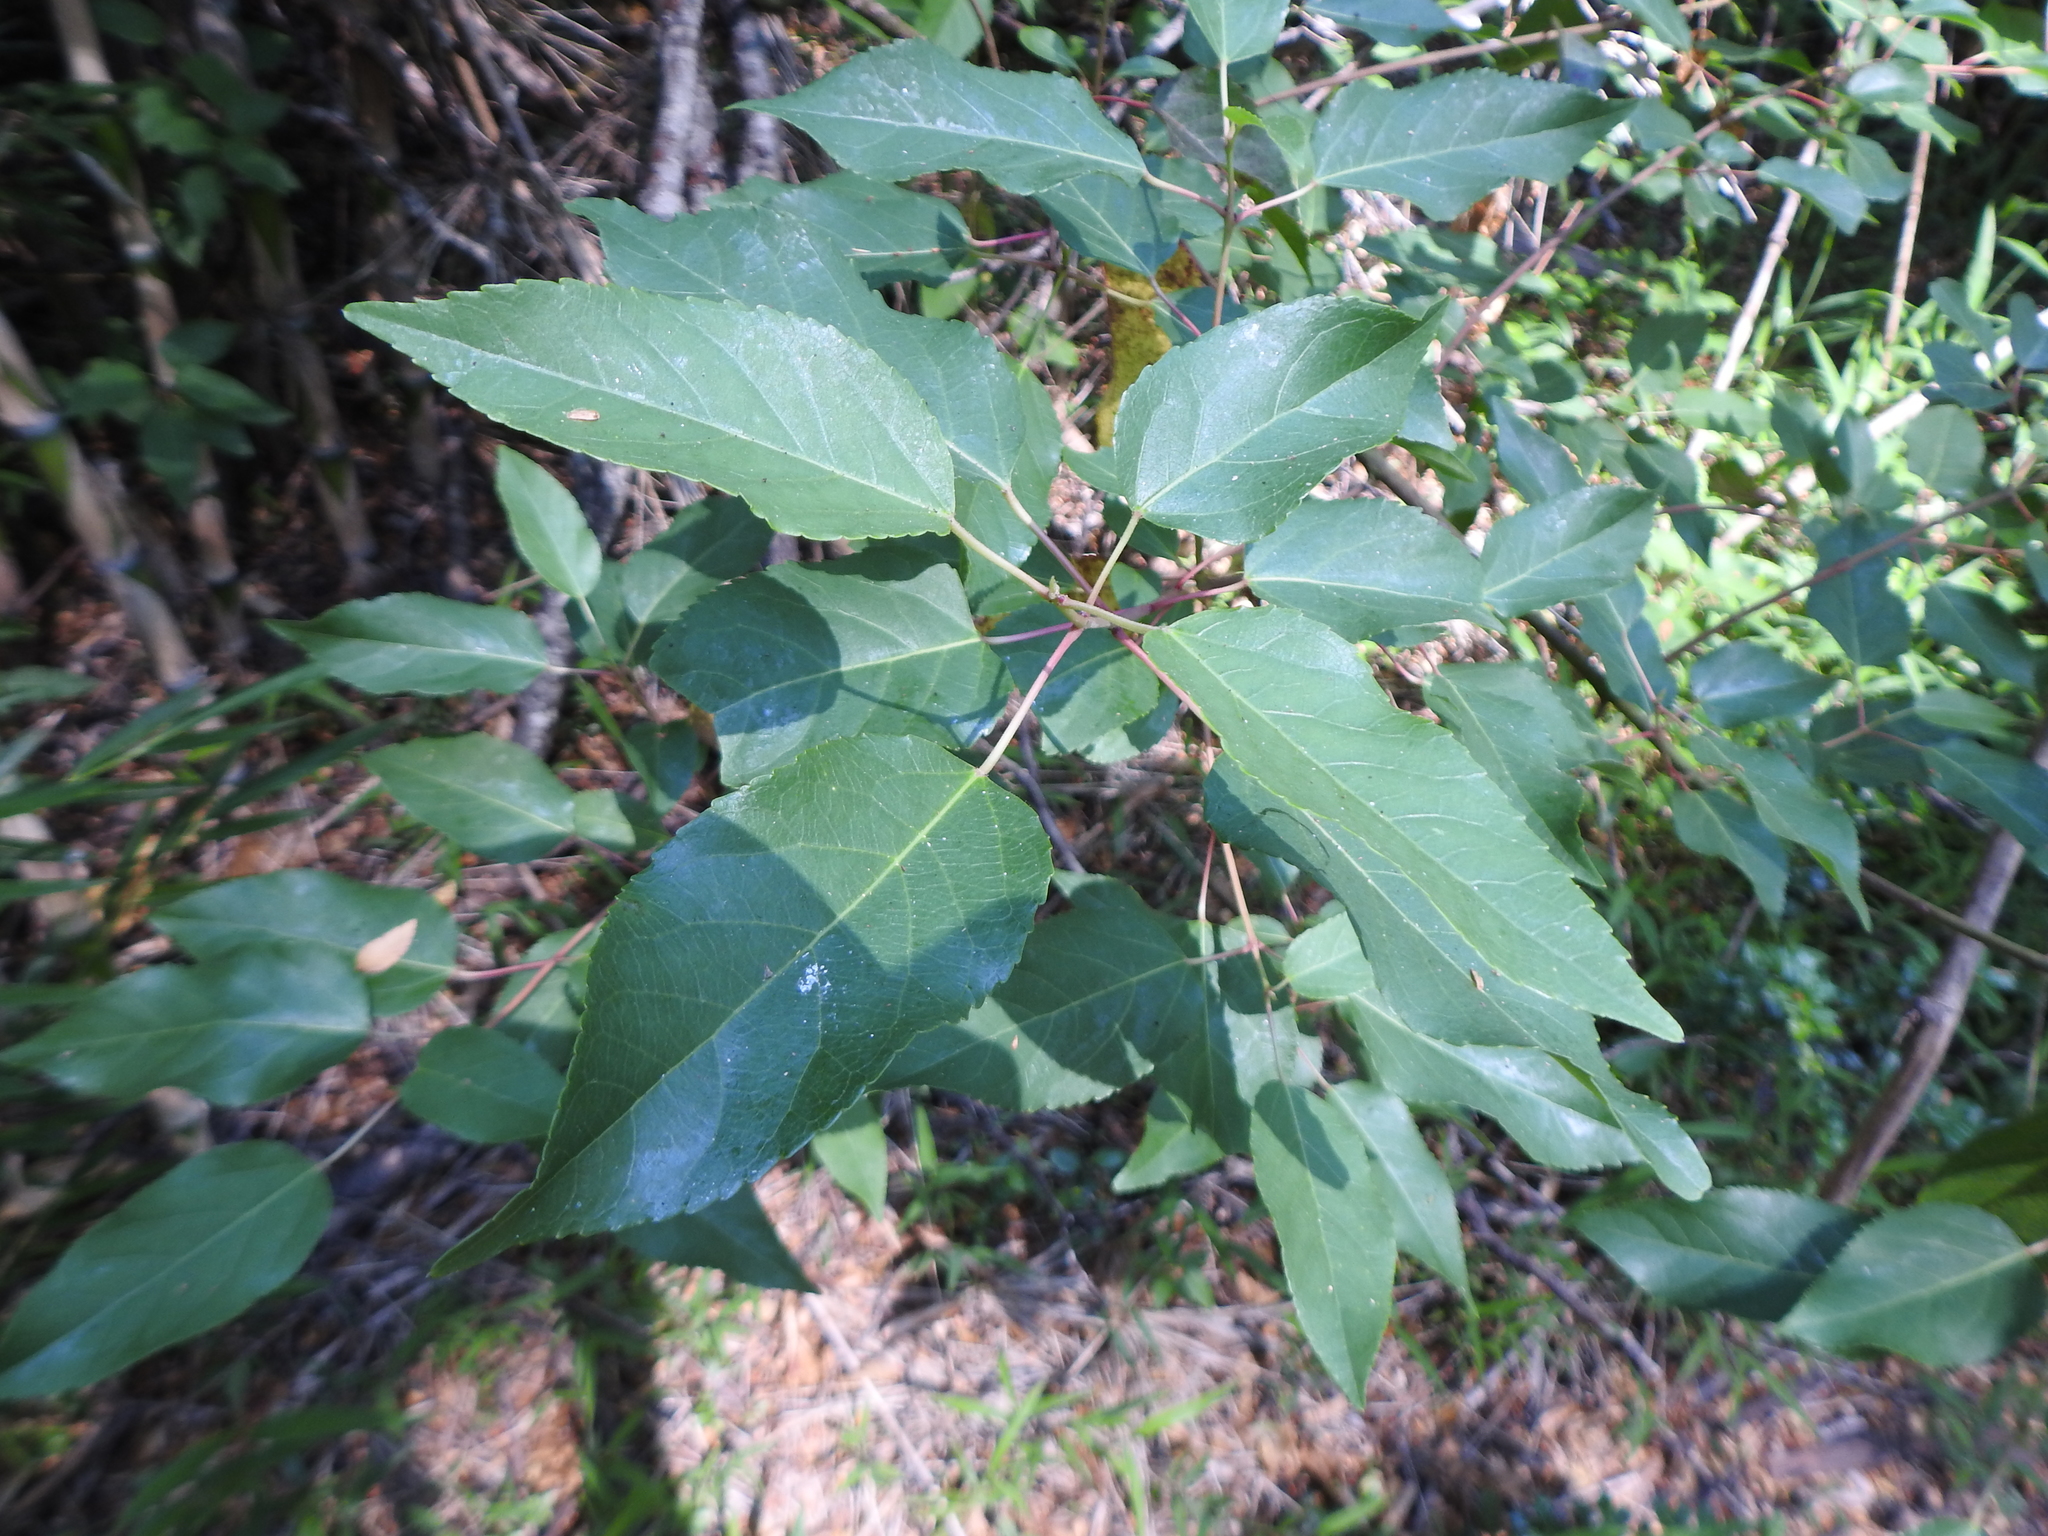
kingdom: Plantae
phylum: Tracheophyta
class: Magnoliopsida
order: Oxalidales
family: Elaeocarpaceae
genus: Aristotelia
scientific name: Aristotelia chilensis
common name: Maquei
